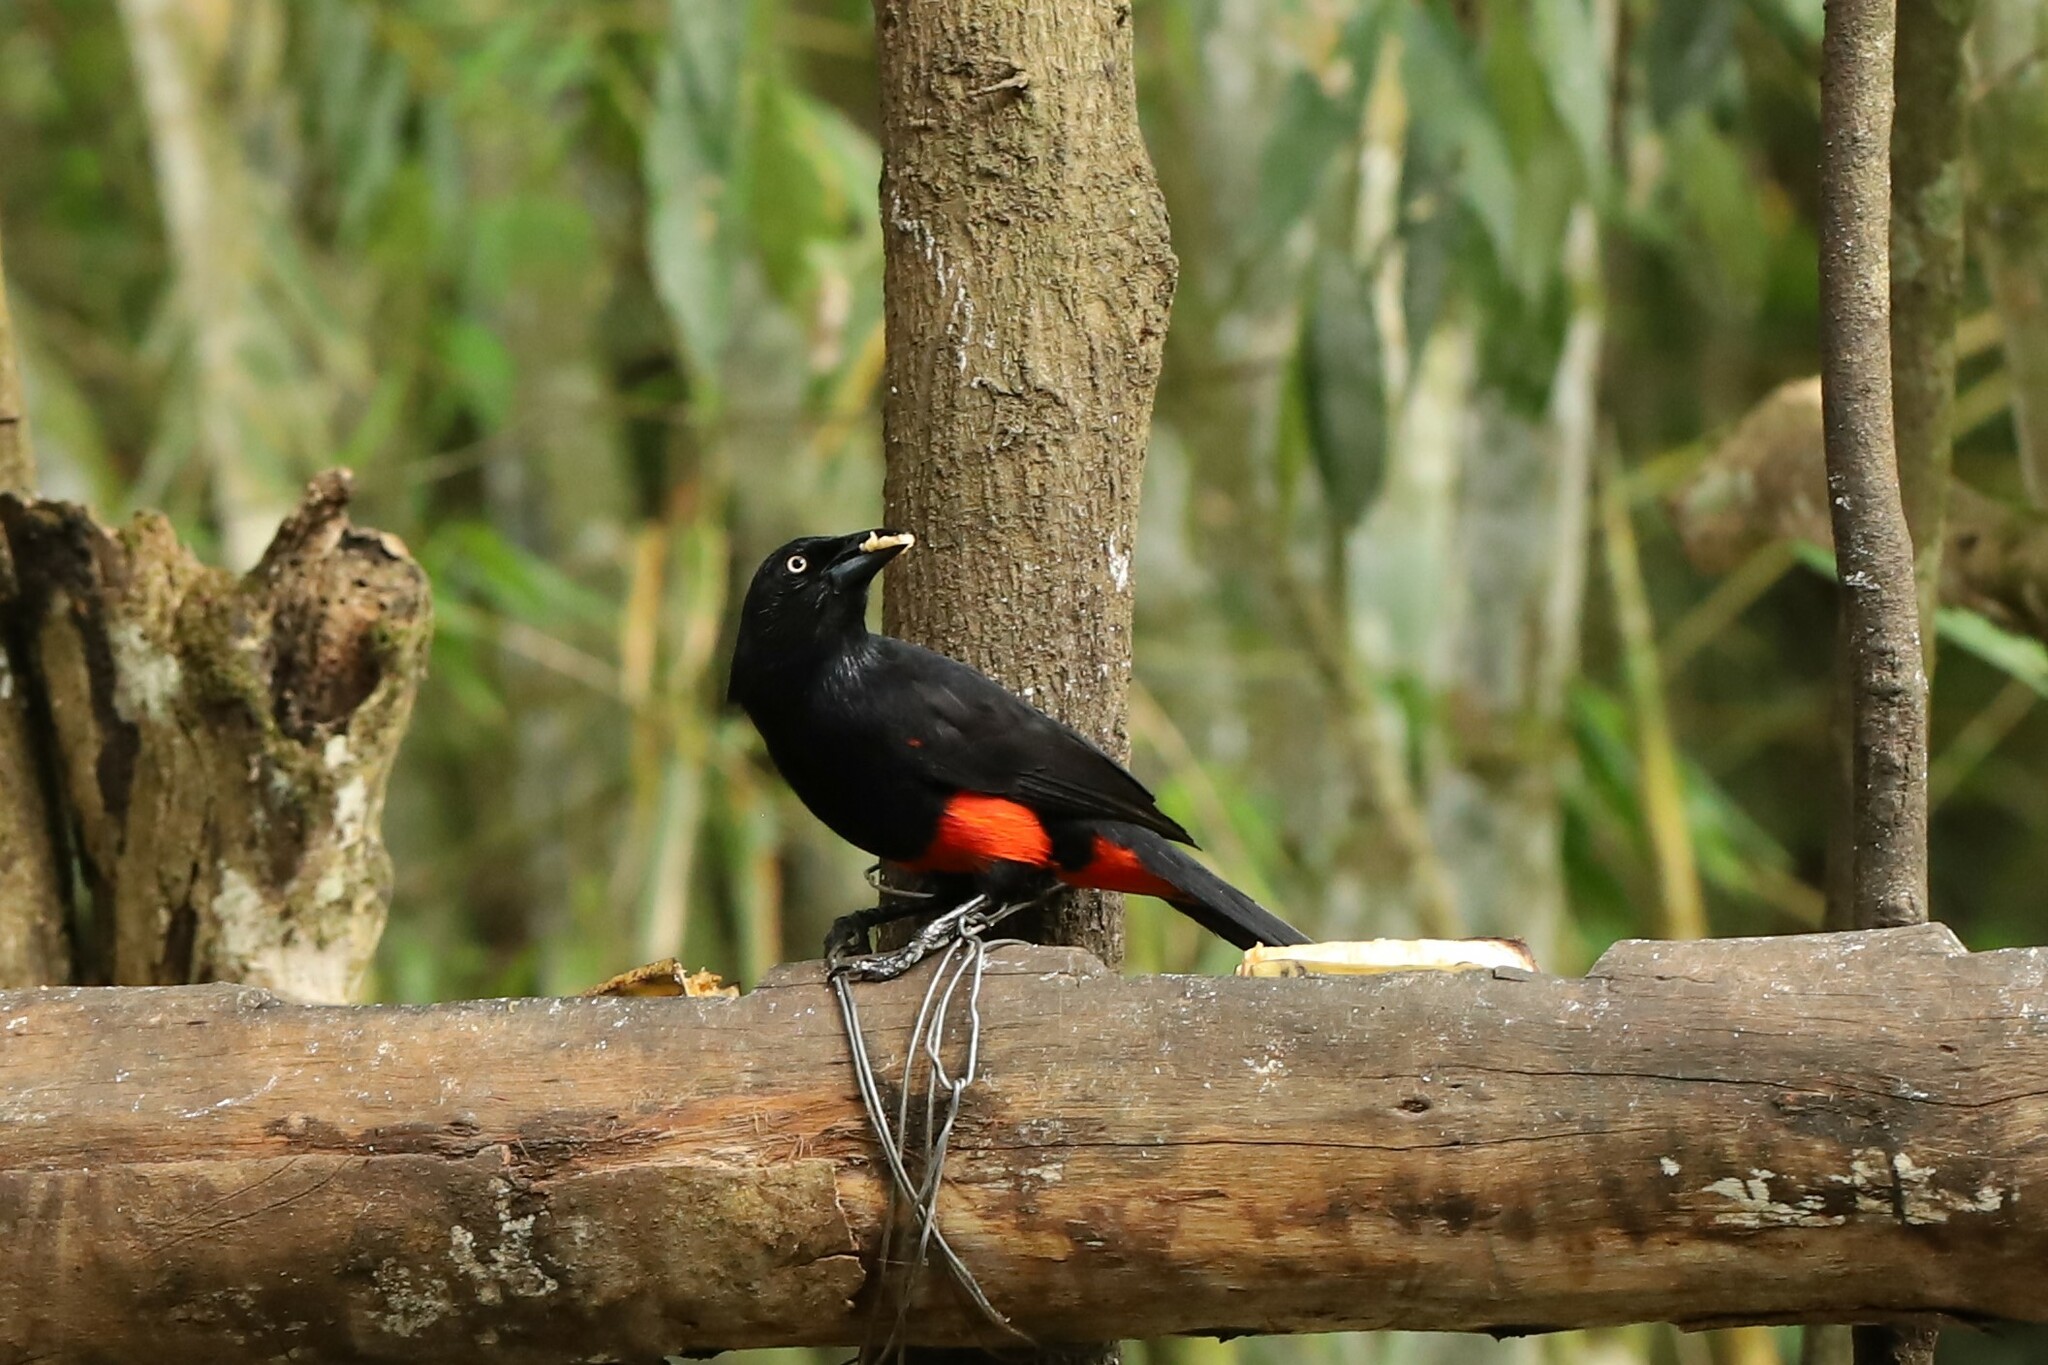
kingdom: Animalia
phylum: Chordata
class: Aves
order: Passeriformes
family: Icteridae
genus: Hypopyrrhus
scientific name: Hypopyrrhus pyrohypogaster
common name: Red-bellied grackle
